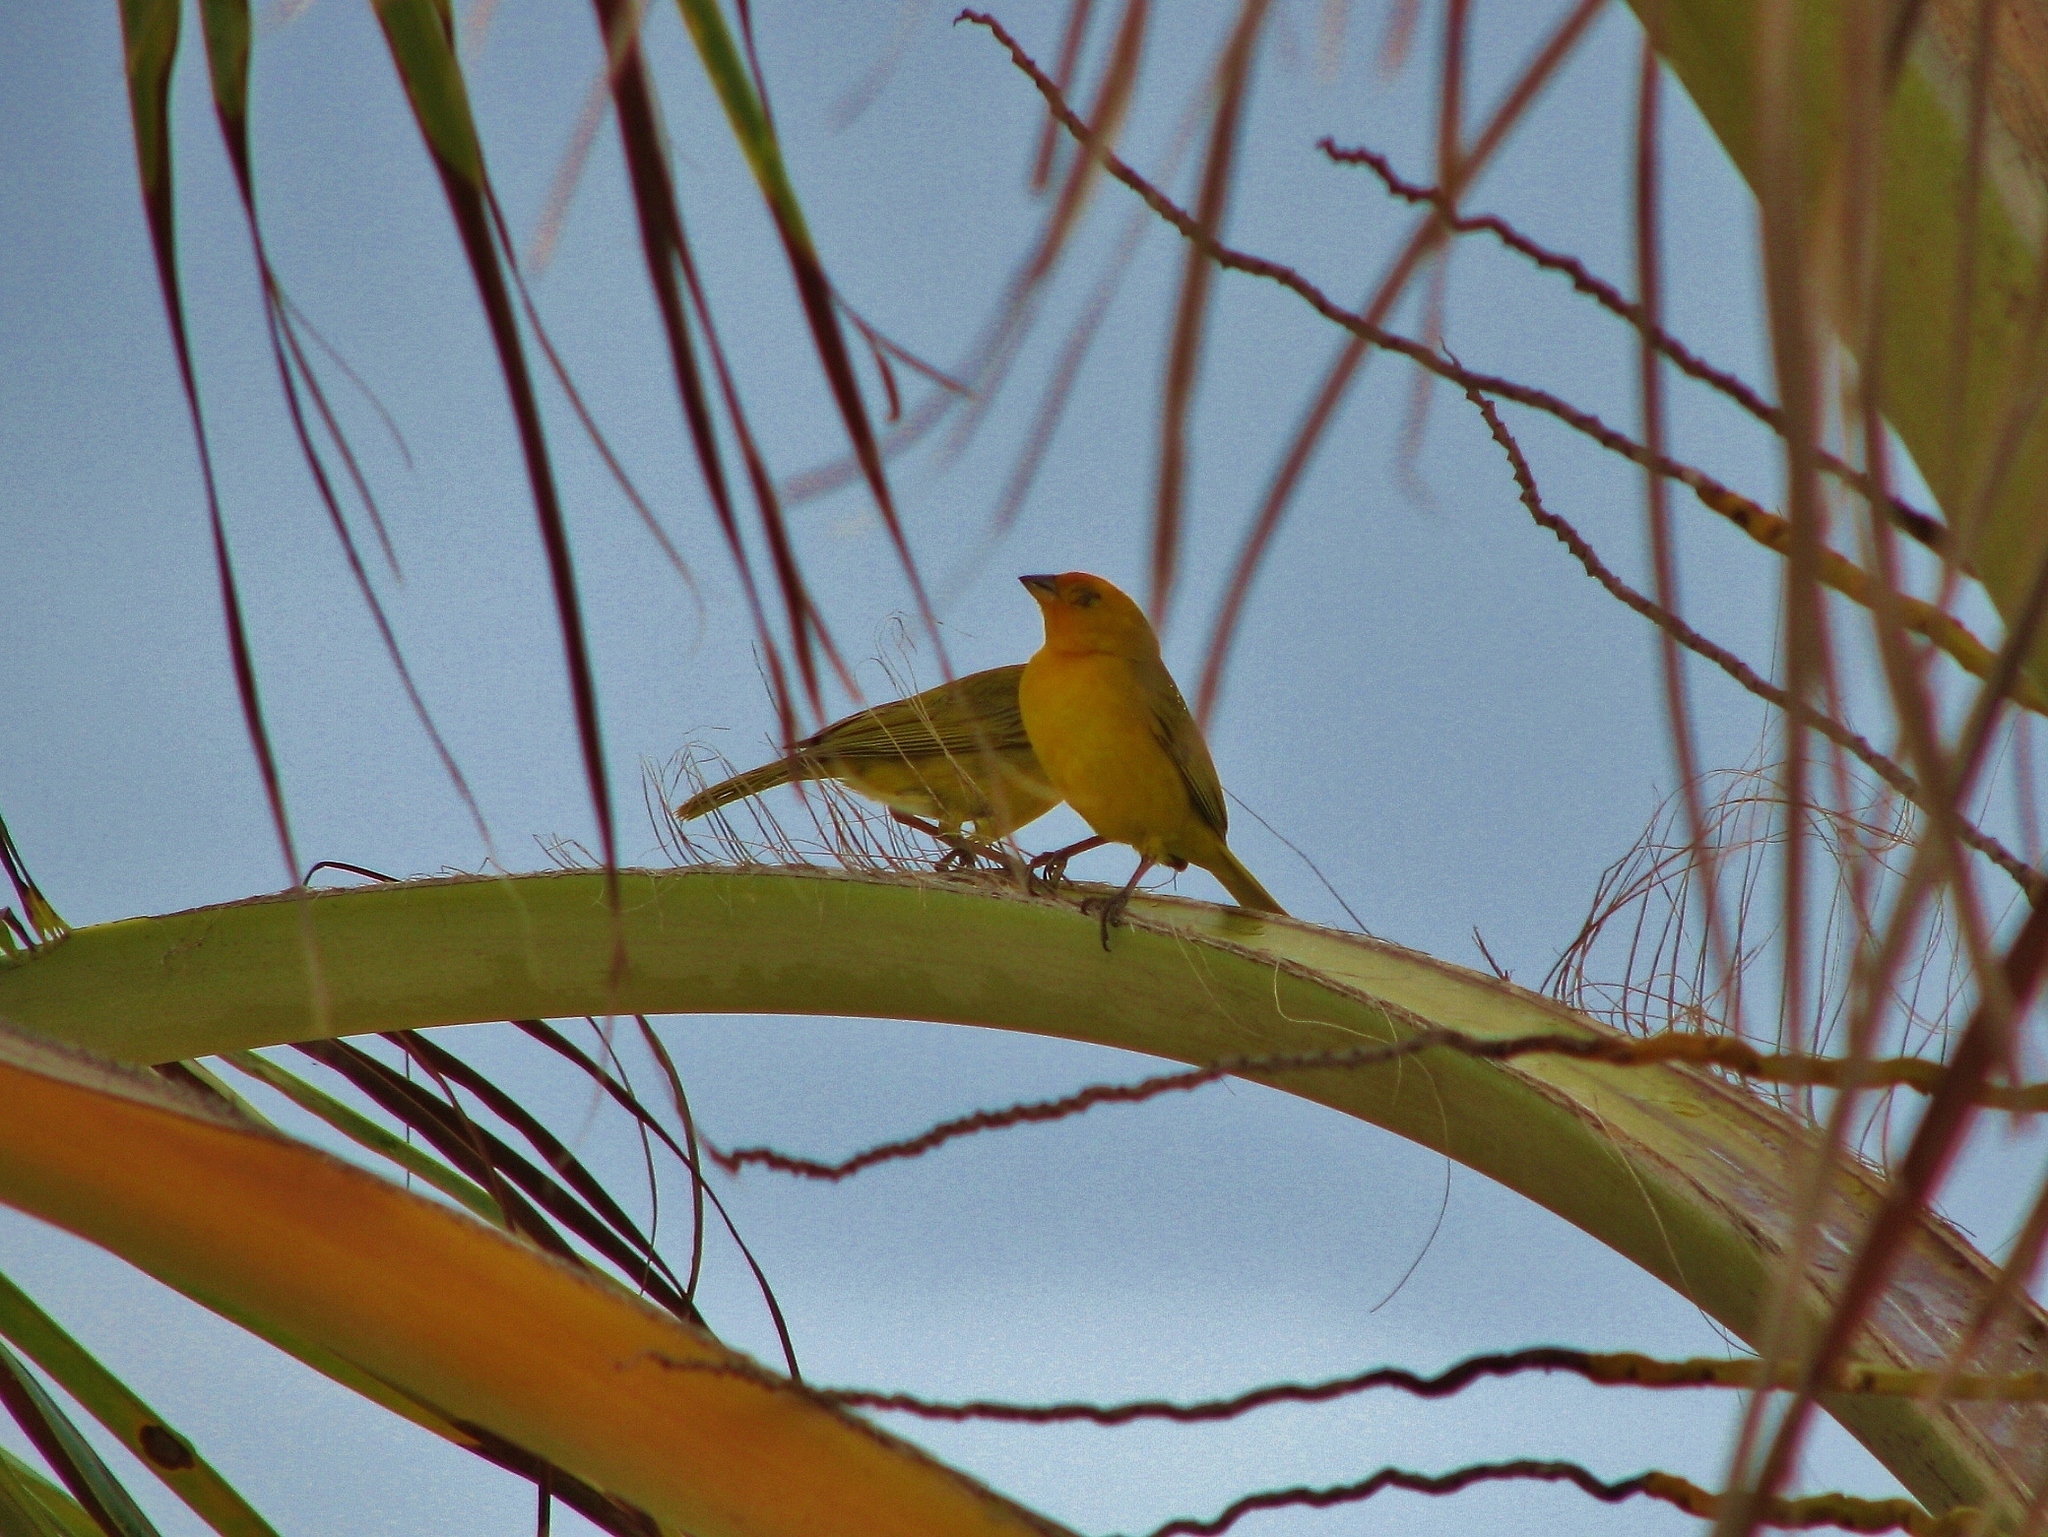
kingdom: Animalia
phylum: Chordata
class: Aves
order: Passeriformes
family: Thraupidae
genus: Sicalis
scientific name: Sicalis flaveola
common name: Saffron finch
